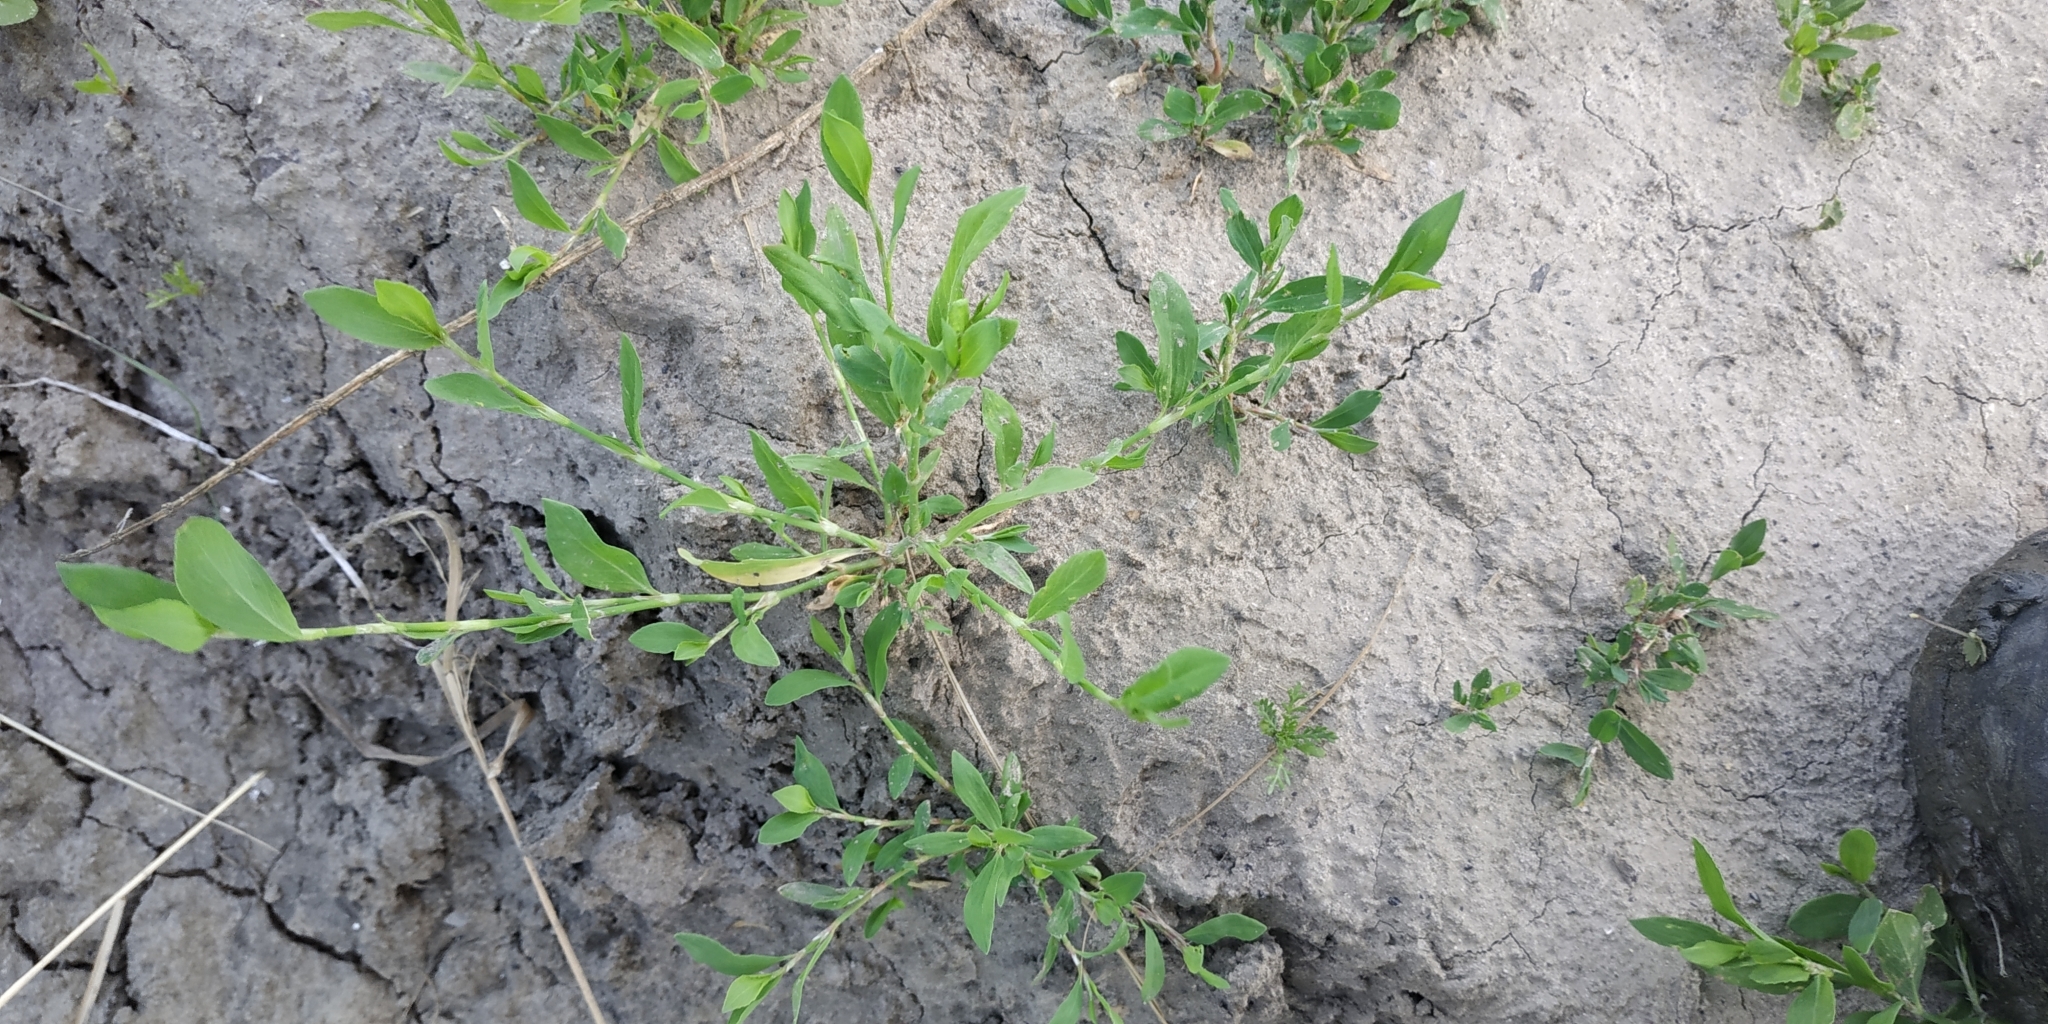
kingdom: Plantae
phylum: Tracheophyta
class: Magnoliopsida
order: Caryophyllales
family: Polygonaceae
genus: Polygonum
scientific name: Polygonum aviculare
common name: Prostrate knotweed
